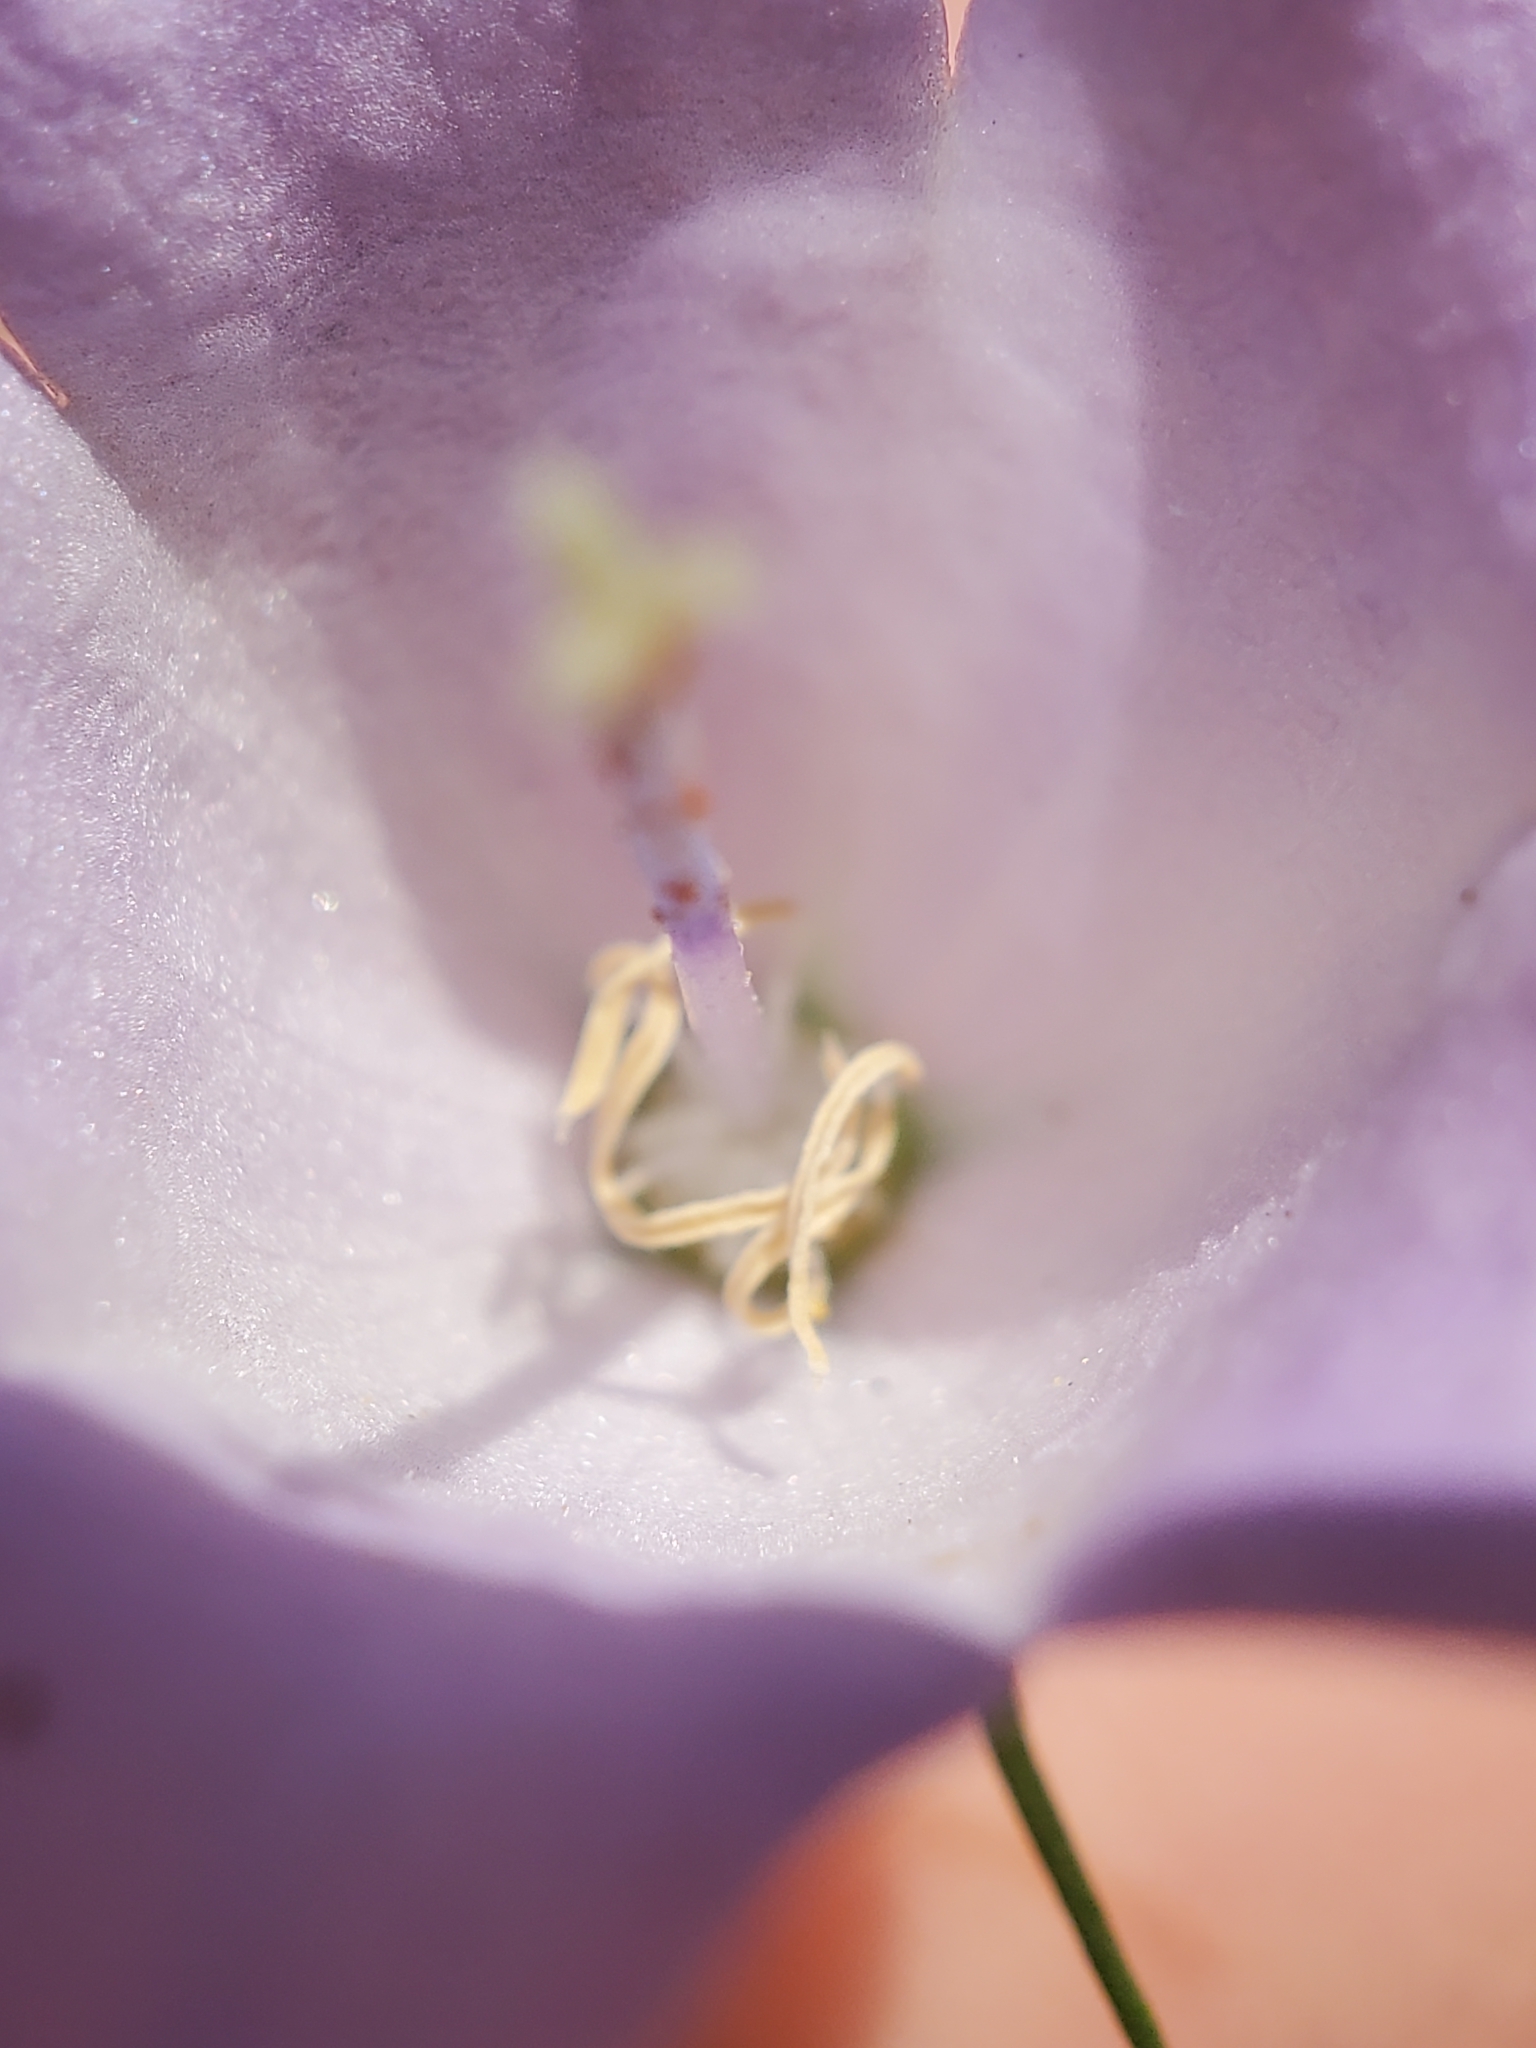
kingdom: Plantae
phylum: Tracheophyta
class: Magnoliopsida
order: Asterales
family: Campanulaceae
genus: Campanula
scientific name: Campanula intercedens
